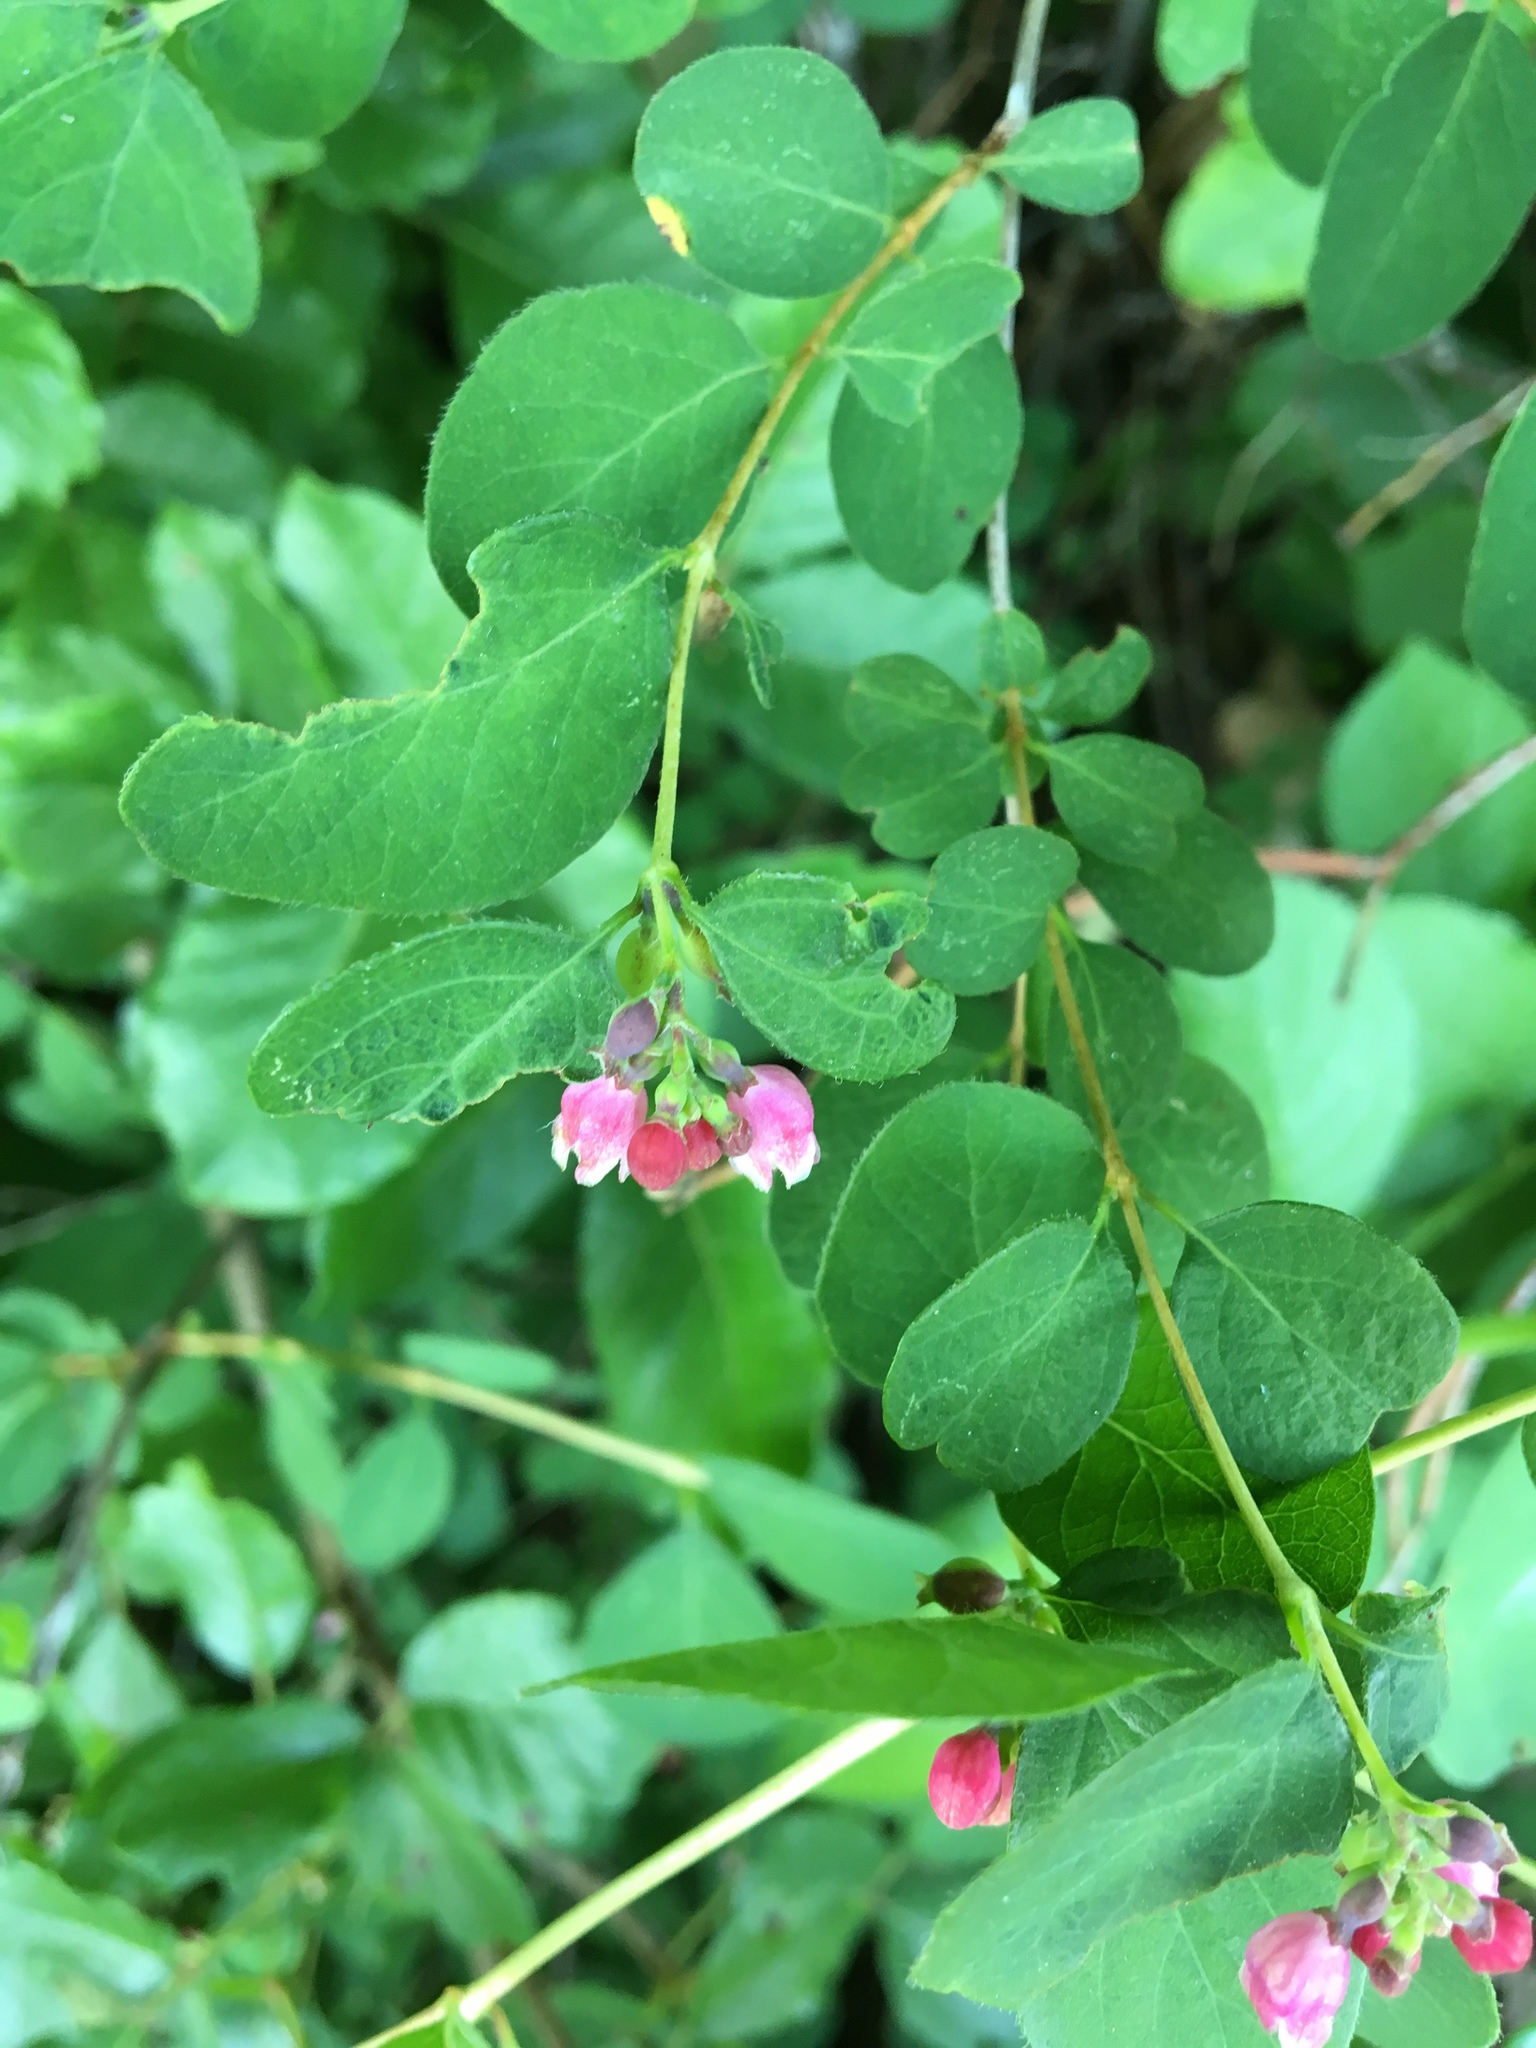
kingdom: Plantae
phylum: Tracheophyta
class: Magnoliopsida
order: Dipsacales
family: Caprifoliaceae
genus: Symphoricarpos
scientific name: Symphoricarpos albus
